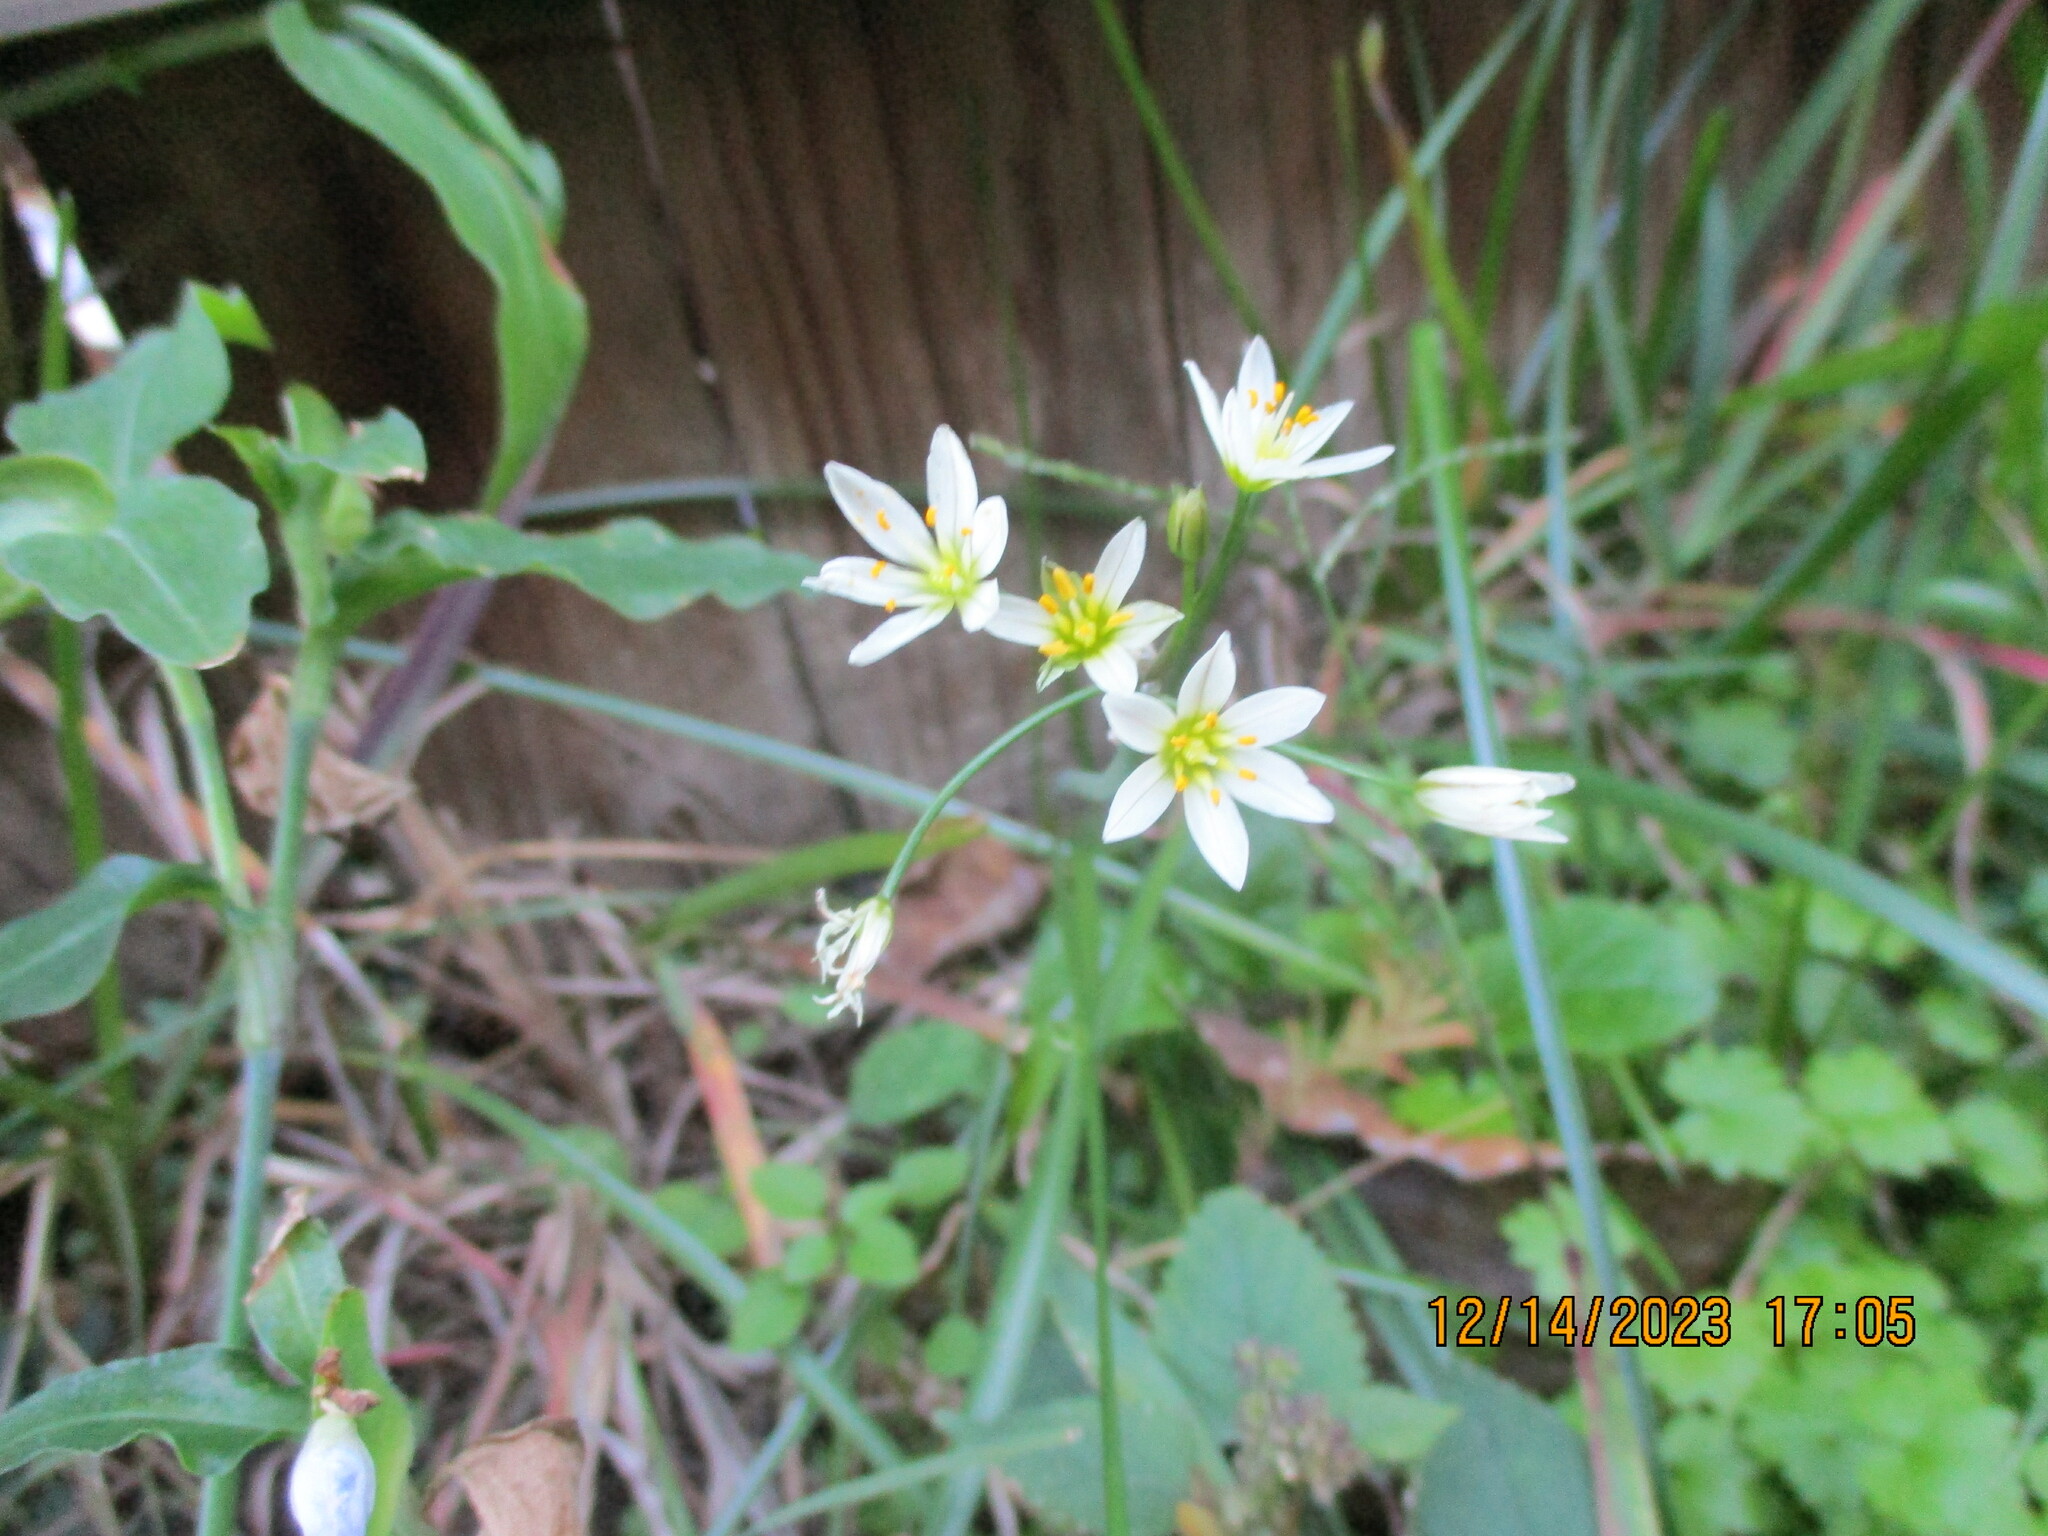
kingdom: Plantae
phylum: Tracheophyta
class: Liliopsida
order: Asparagales
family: Amaryllidaceae
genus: Nothoscordum
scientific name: Nothoscordum bivalve
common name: Crow-poison
